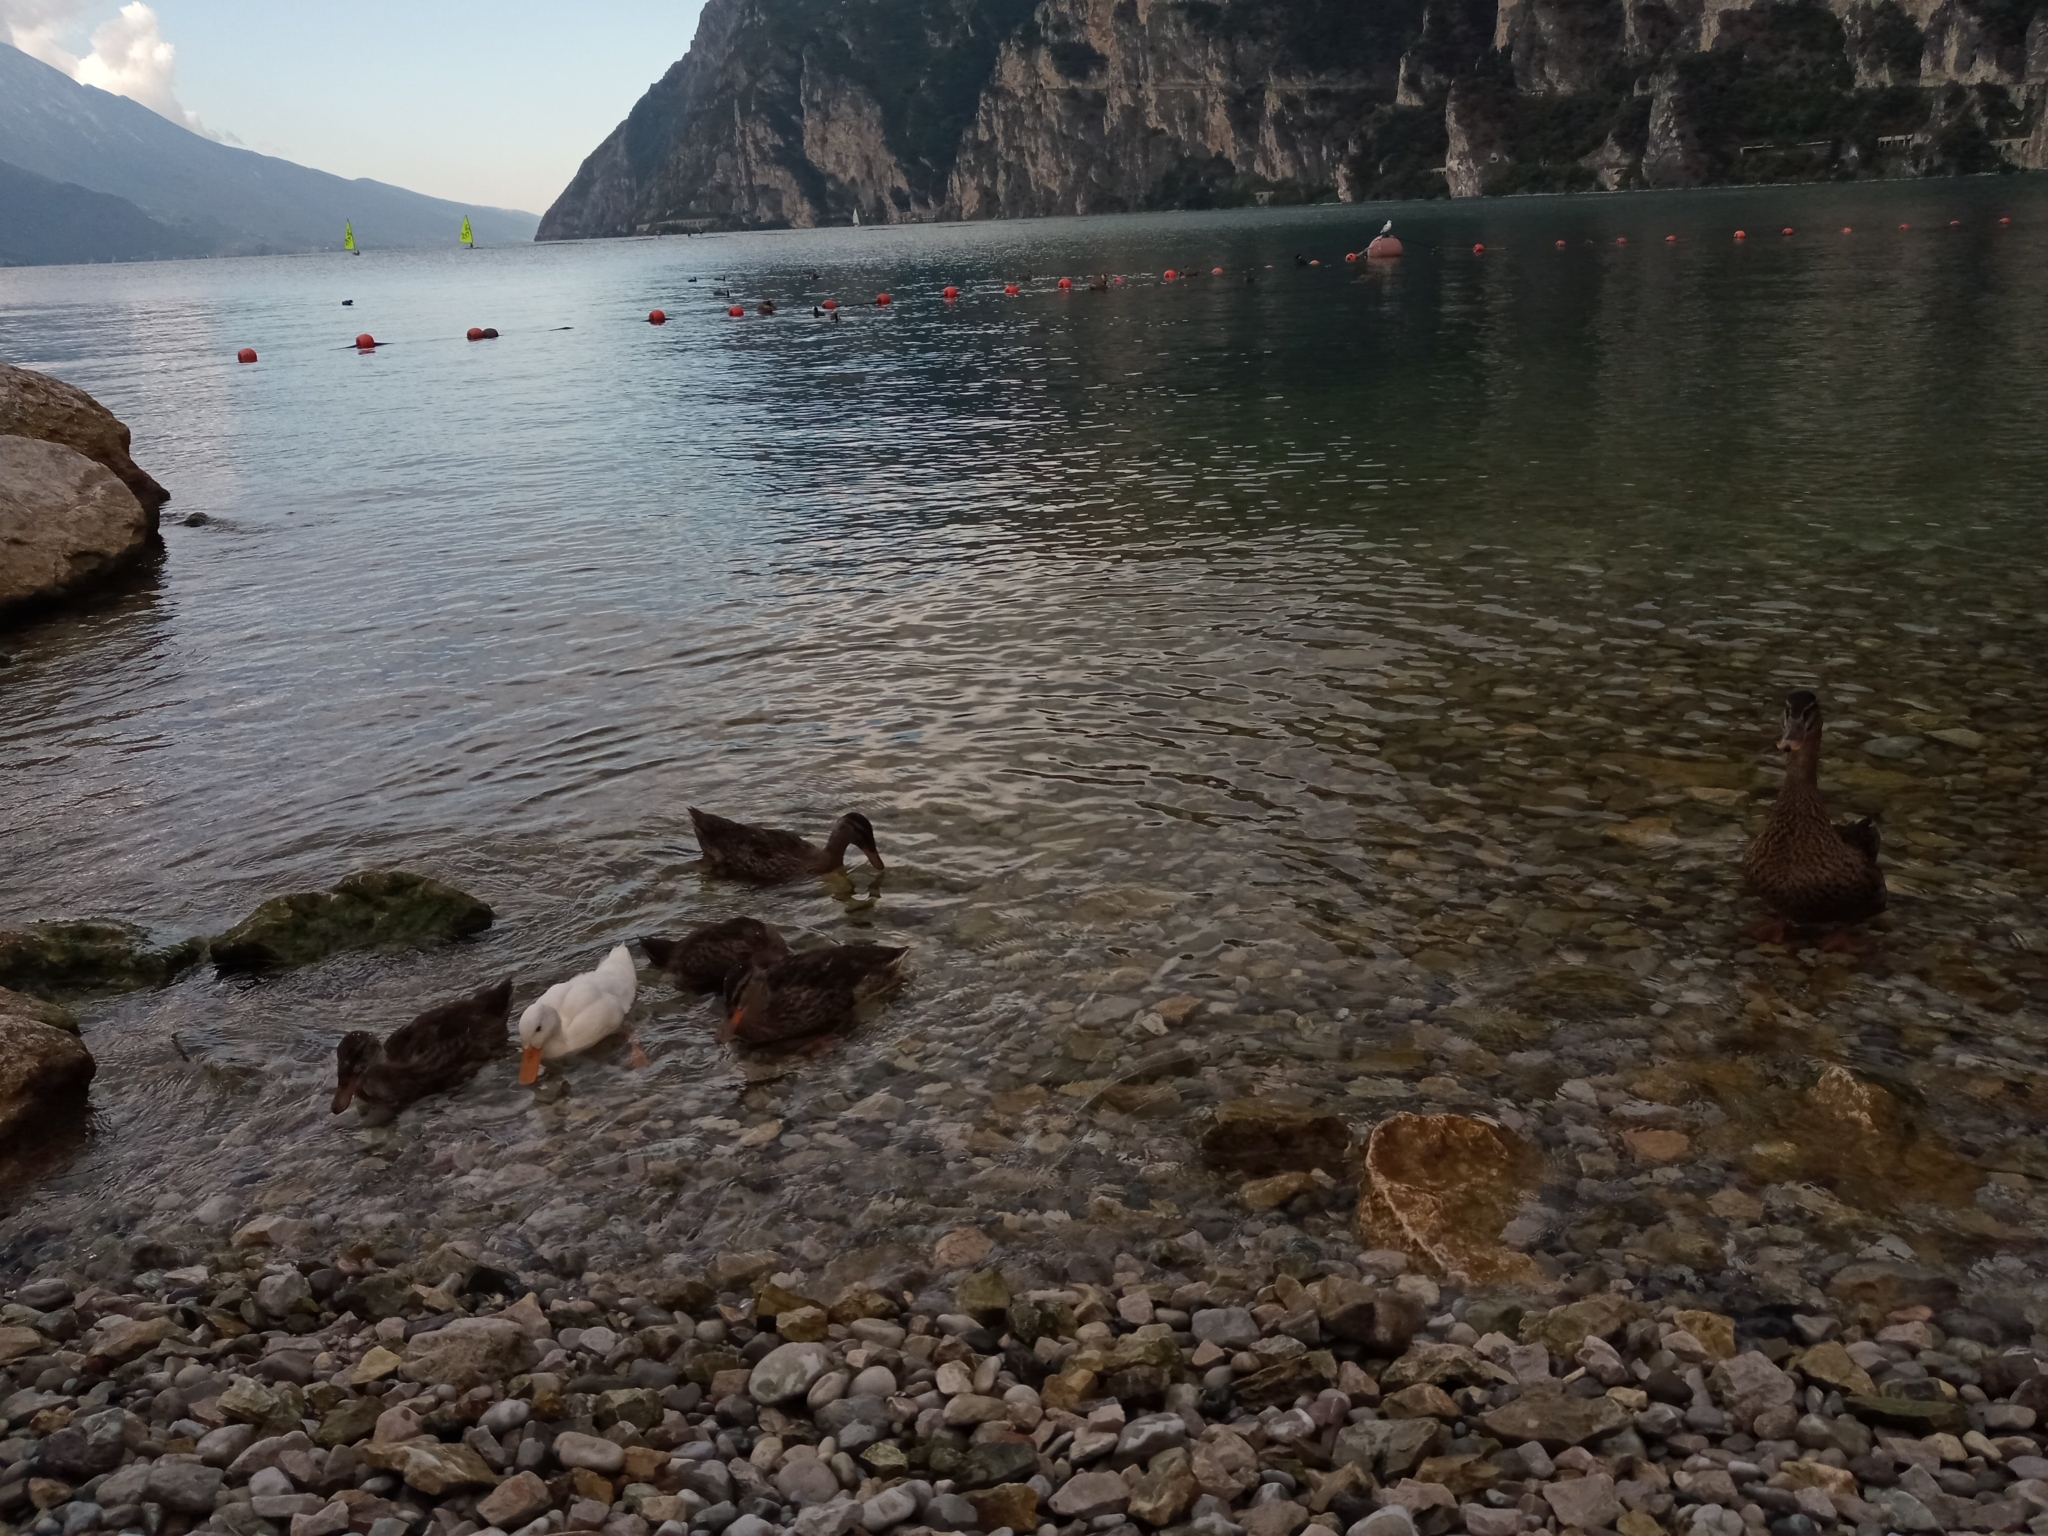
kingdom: Animalia
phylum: Chordata
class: Aves
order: Anseriformes
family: Anatidae
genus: Anas
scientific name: Anas platyrhynchos
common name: Mallard
